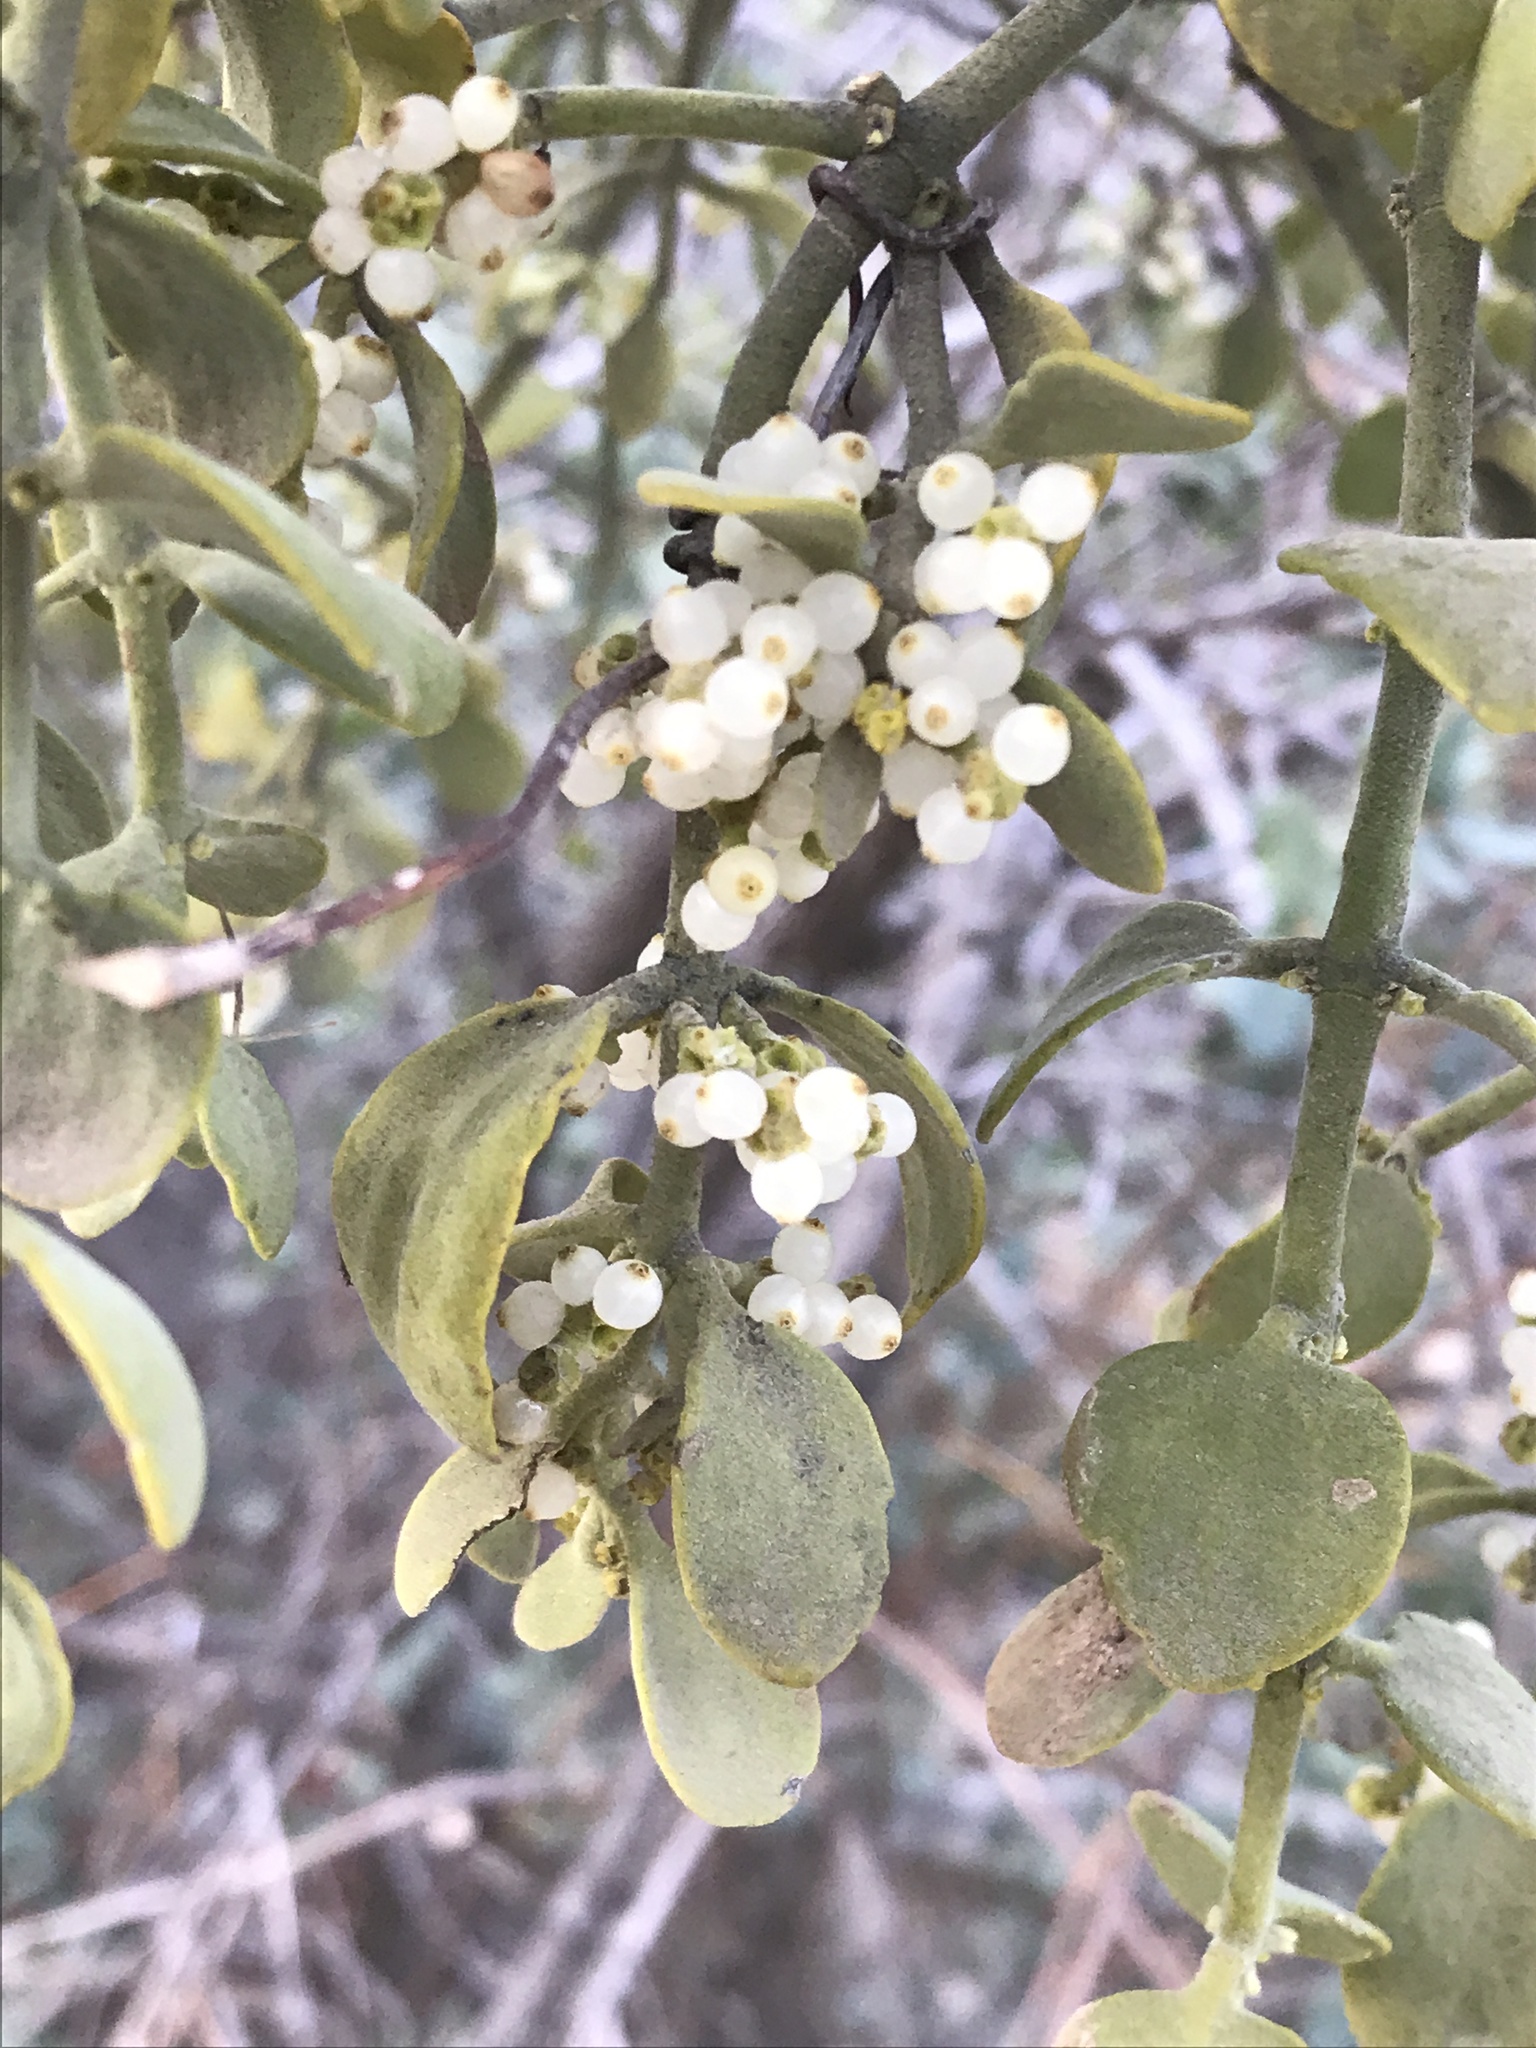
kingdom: Plantae
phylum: Tracheophyta
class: Magnoliopsida
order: Santalales
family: Viscaceae
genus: Phoradendron
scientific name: Phoradendron coryae
